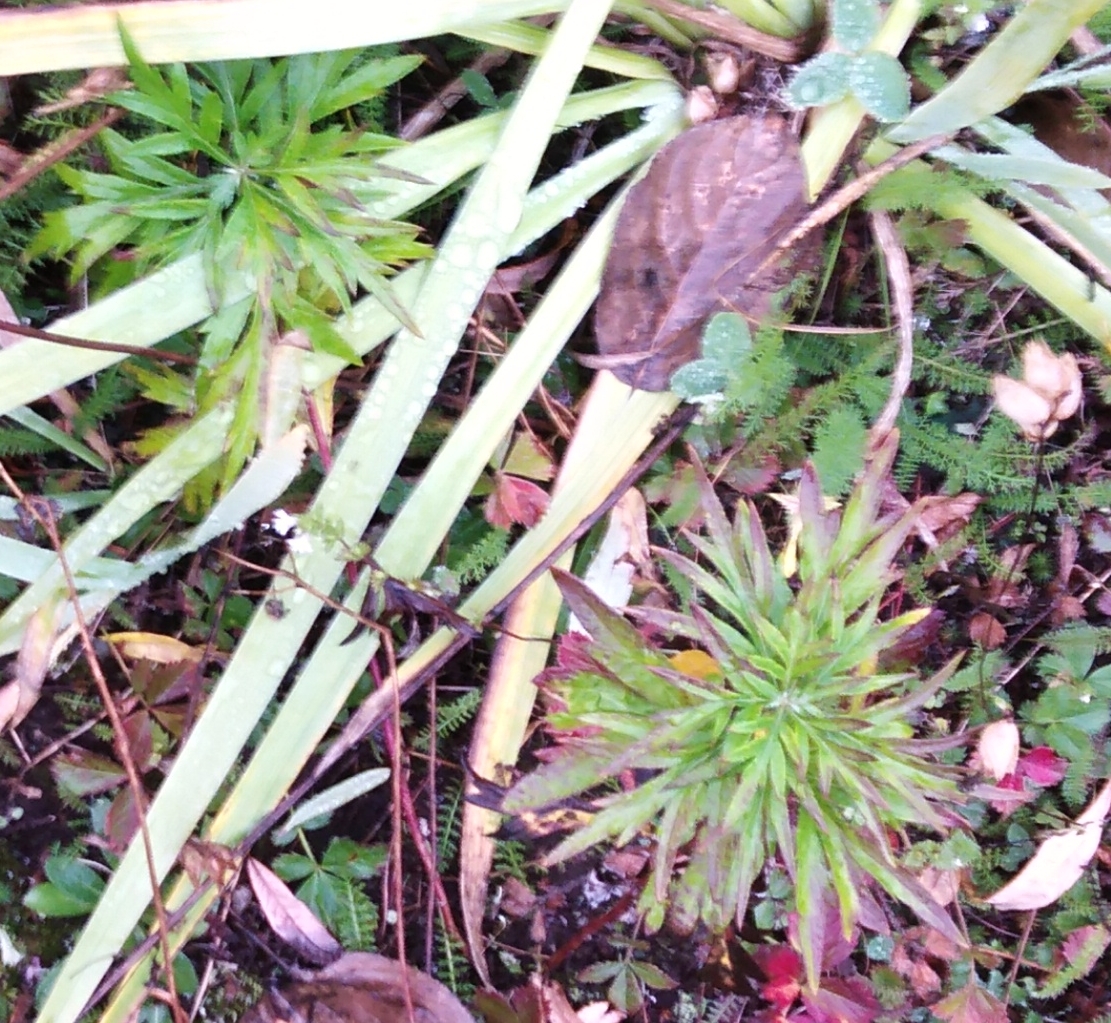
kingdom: Plantae
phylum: Tracheophyta
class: Magnoliopsida
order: Asterales
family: Asteraceae
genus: Artemisia
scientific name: Artemisia vulgaris
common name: Mugwort
